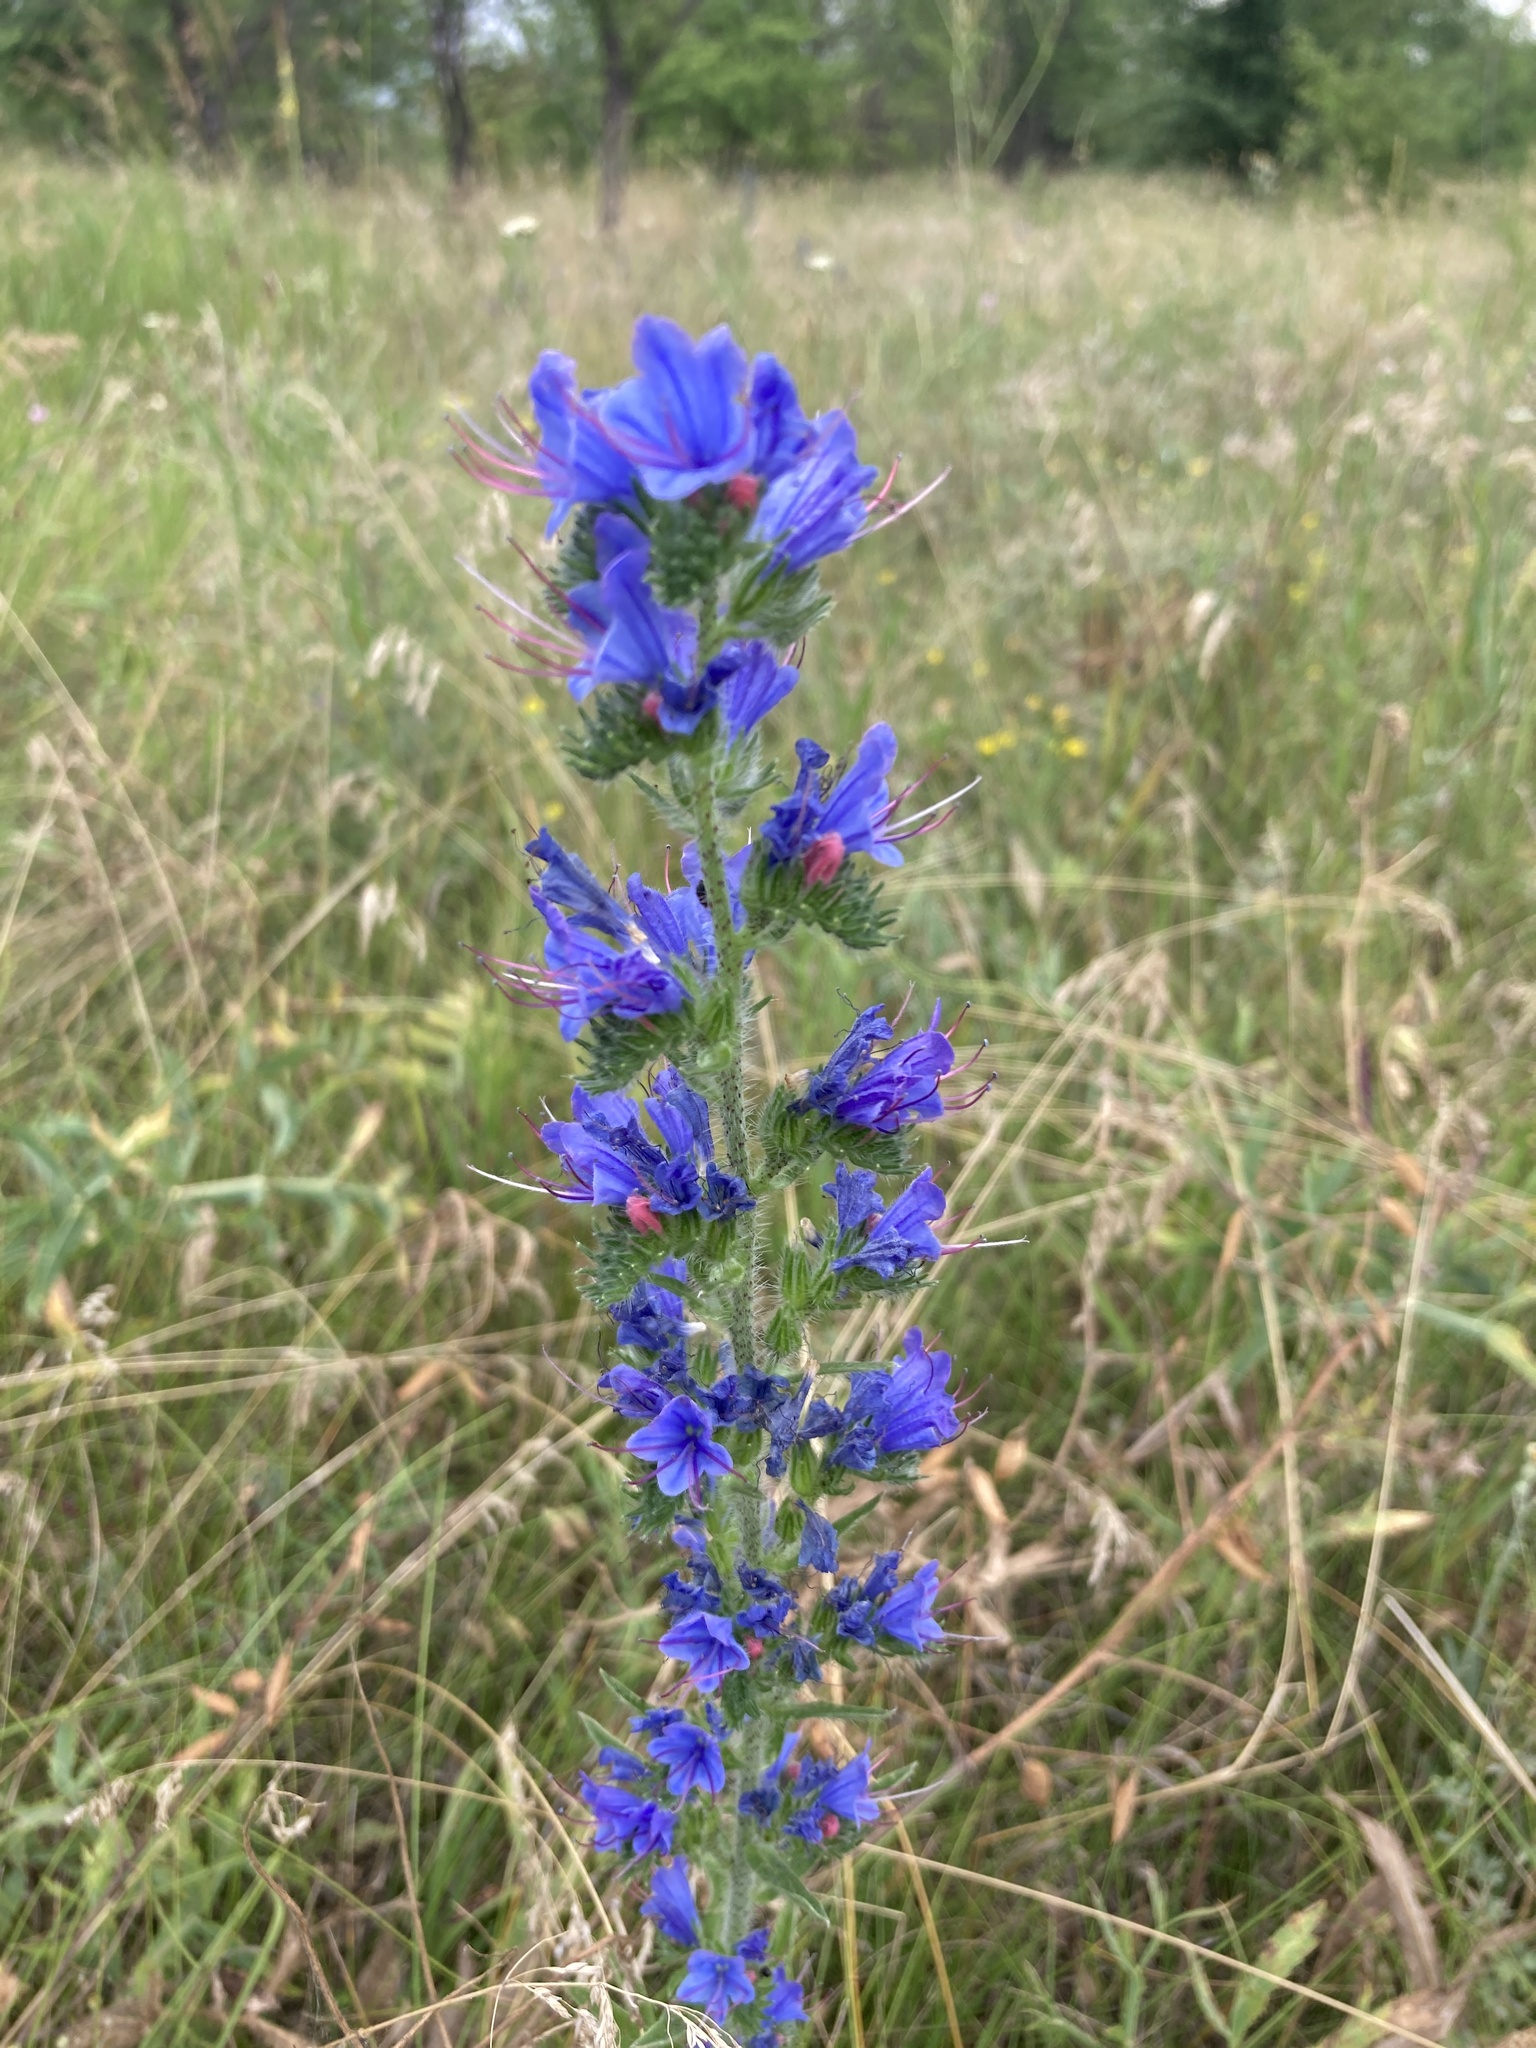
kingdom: Plantae
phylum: Tracheophyta
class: Magnoliopsida
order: Boraginales
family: Boraginaceae
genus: Echium
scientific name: Echium vulgare
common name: Common viper's bugloss
